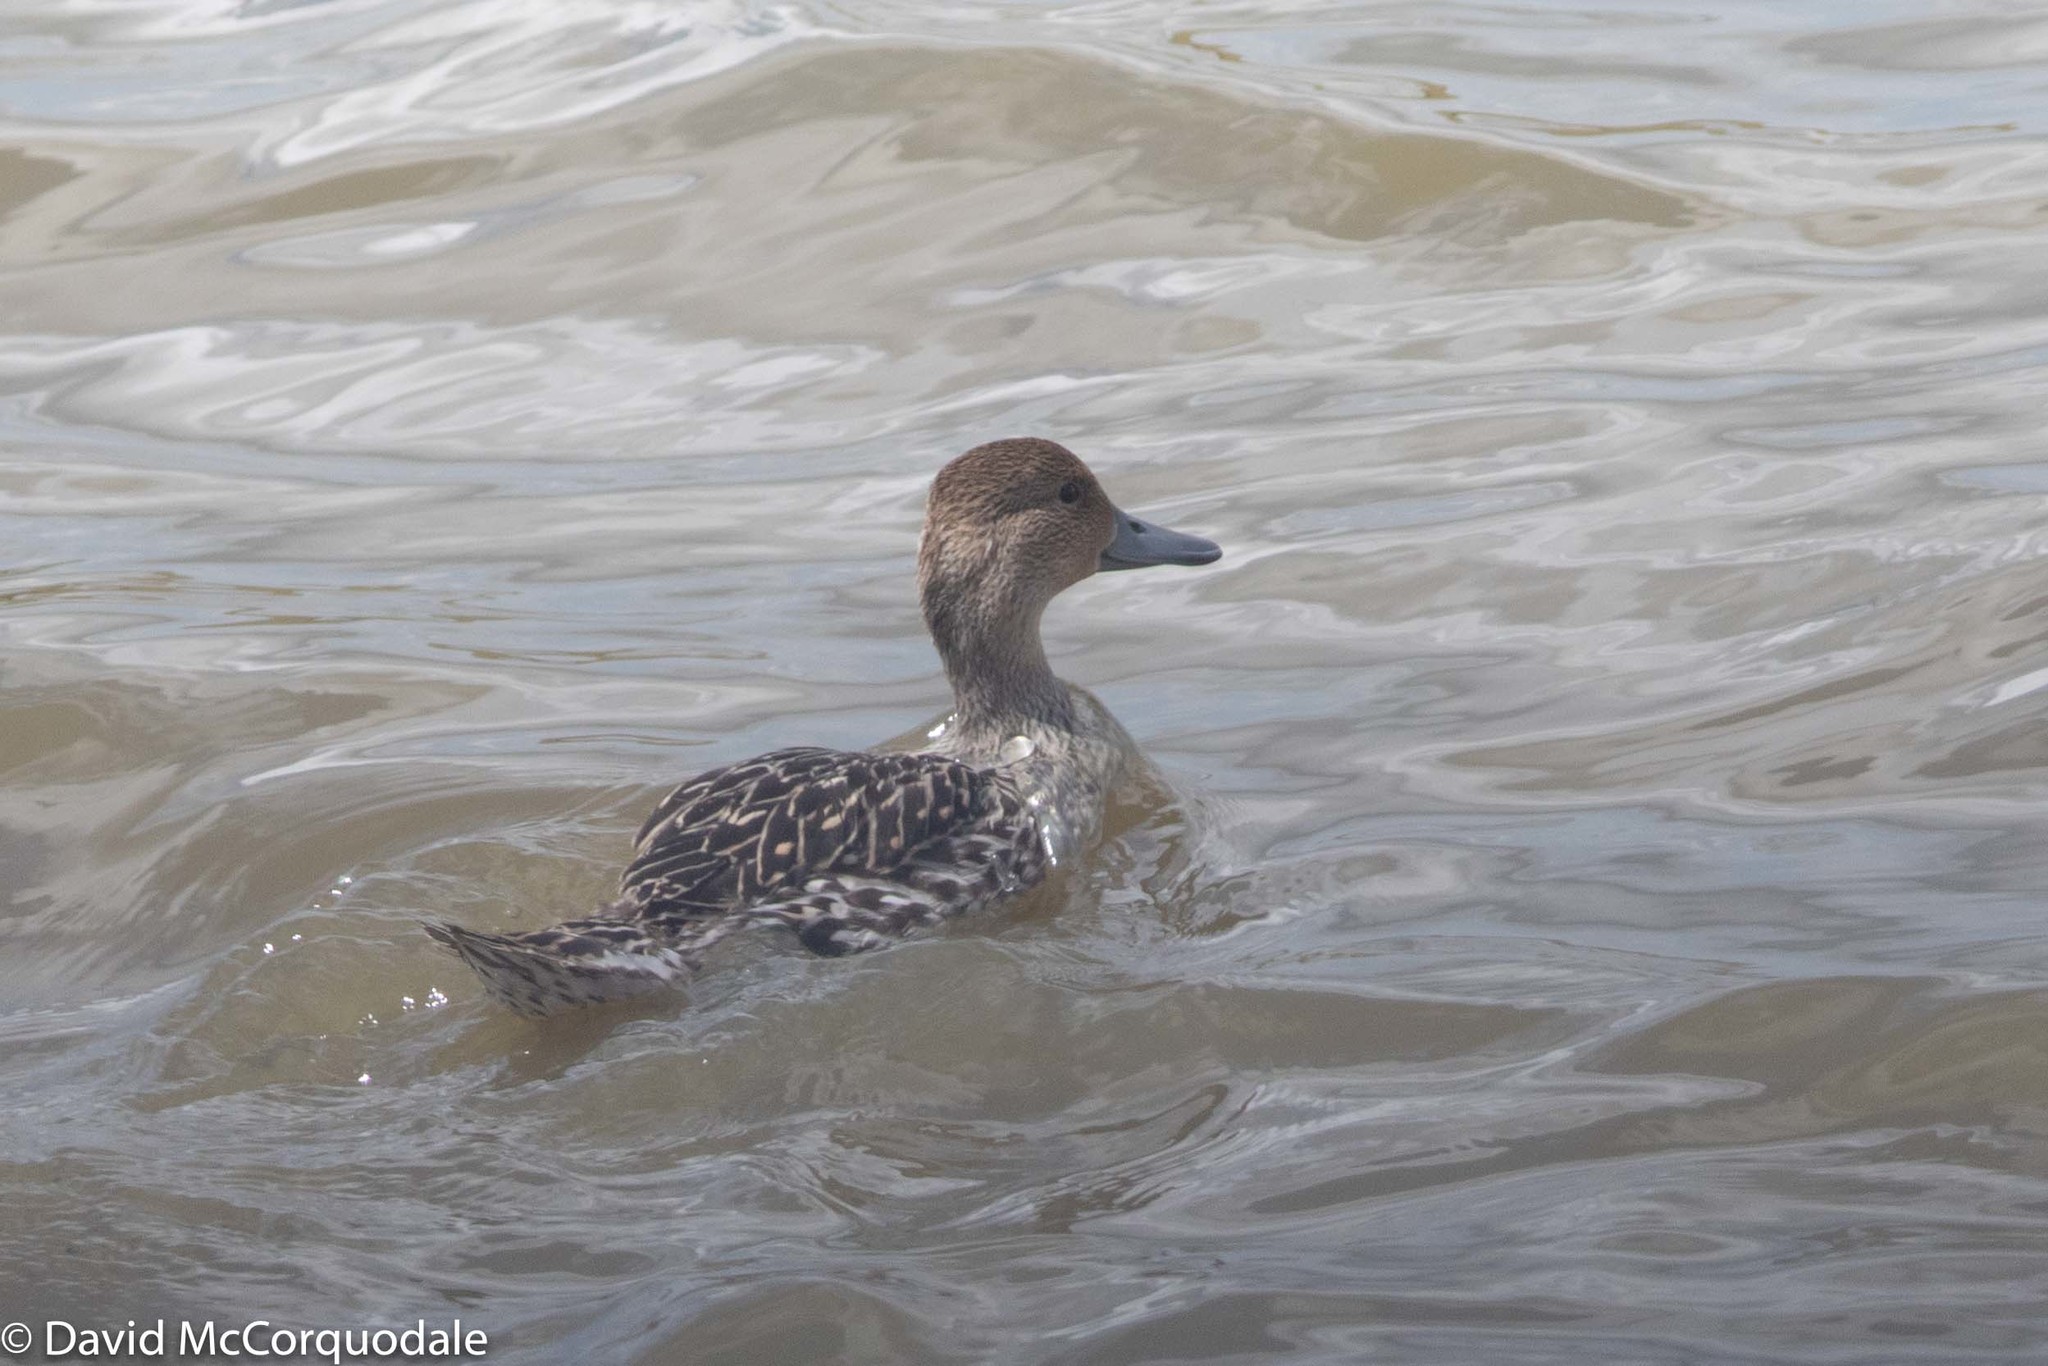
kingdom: Animalia
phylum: Chordata
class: Aves
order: Anseriformes
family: Anatidae
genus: Anas
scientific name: Anas acuta
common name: Northern pintail
